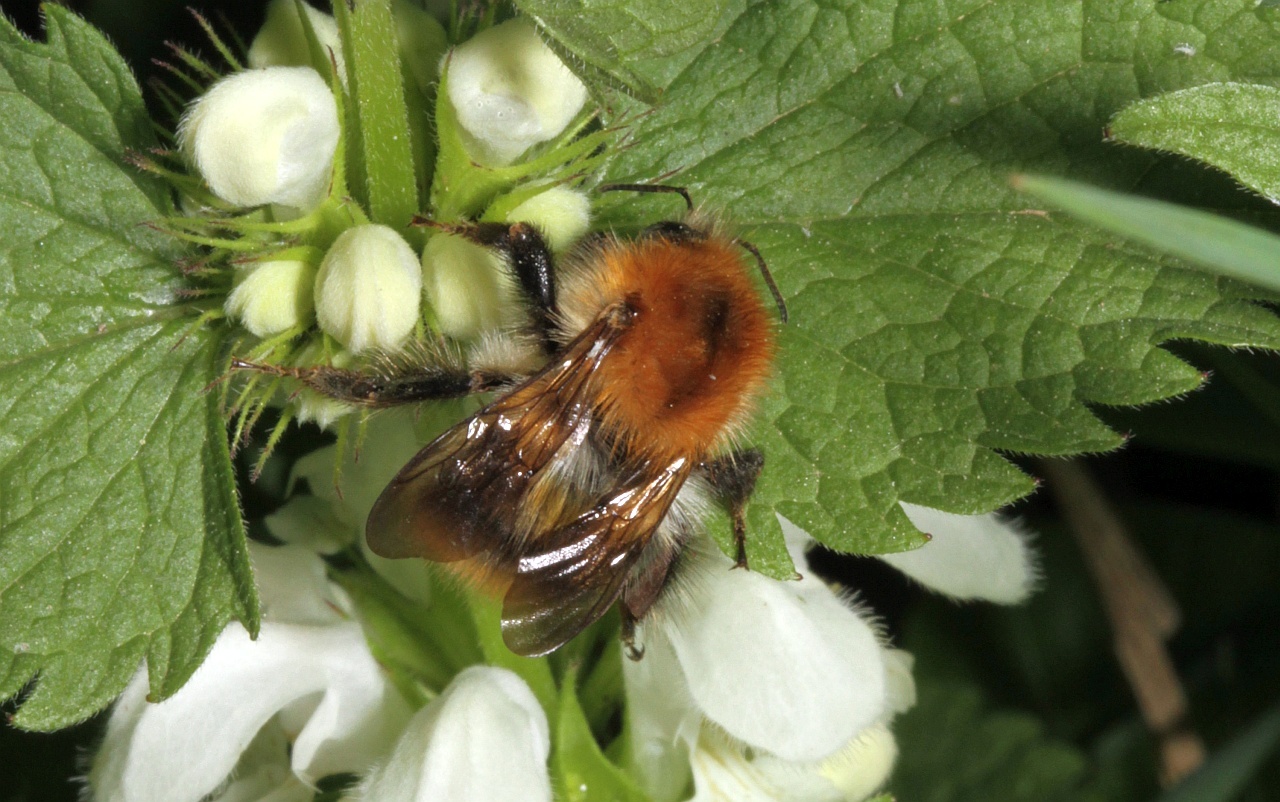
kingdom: Animalia
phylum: Arthropoda
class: Insecta
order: Hymenoptera
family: Apidae
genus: Bombus
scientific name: Bombus pascuorum
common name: Common carder bee
